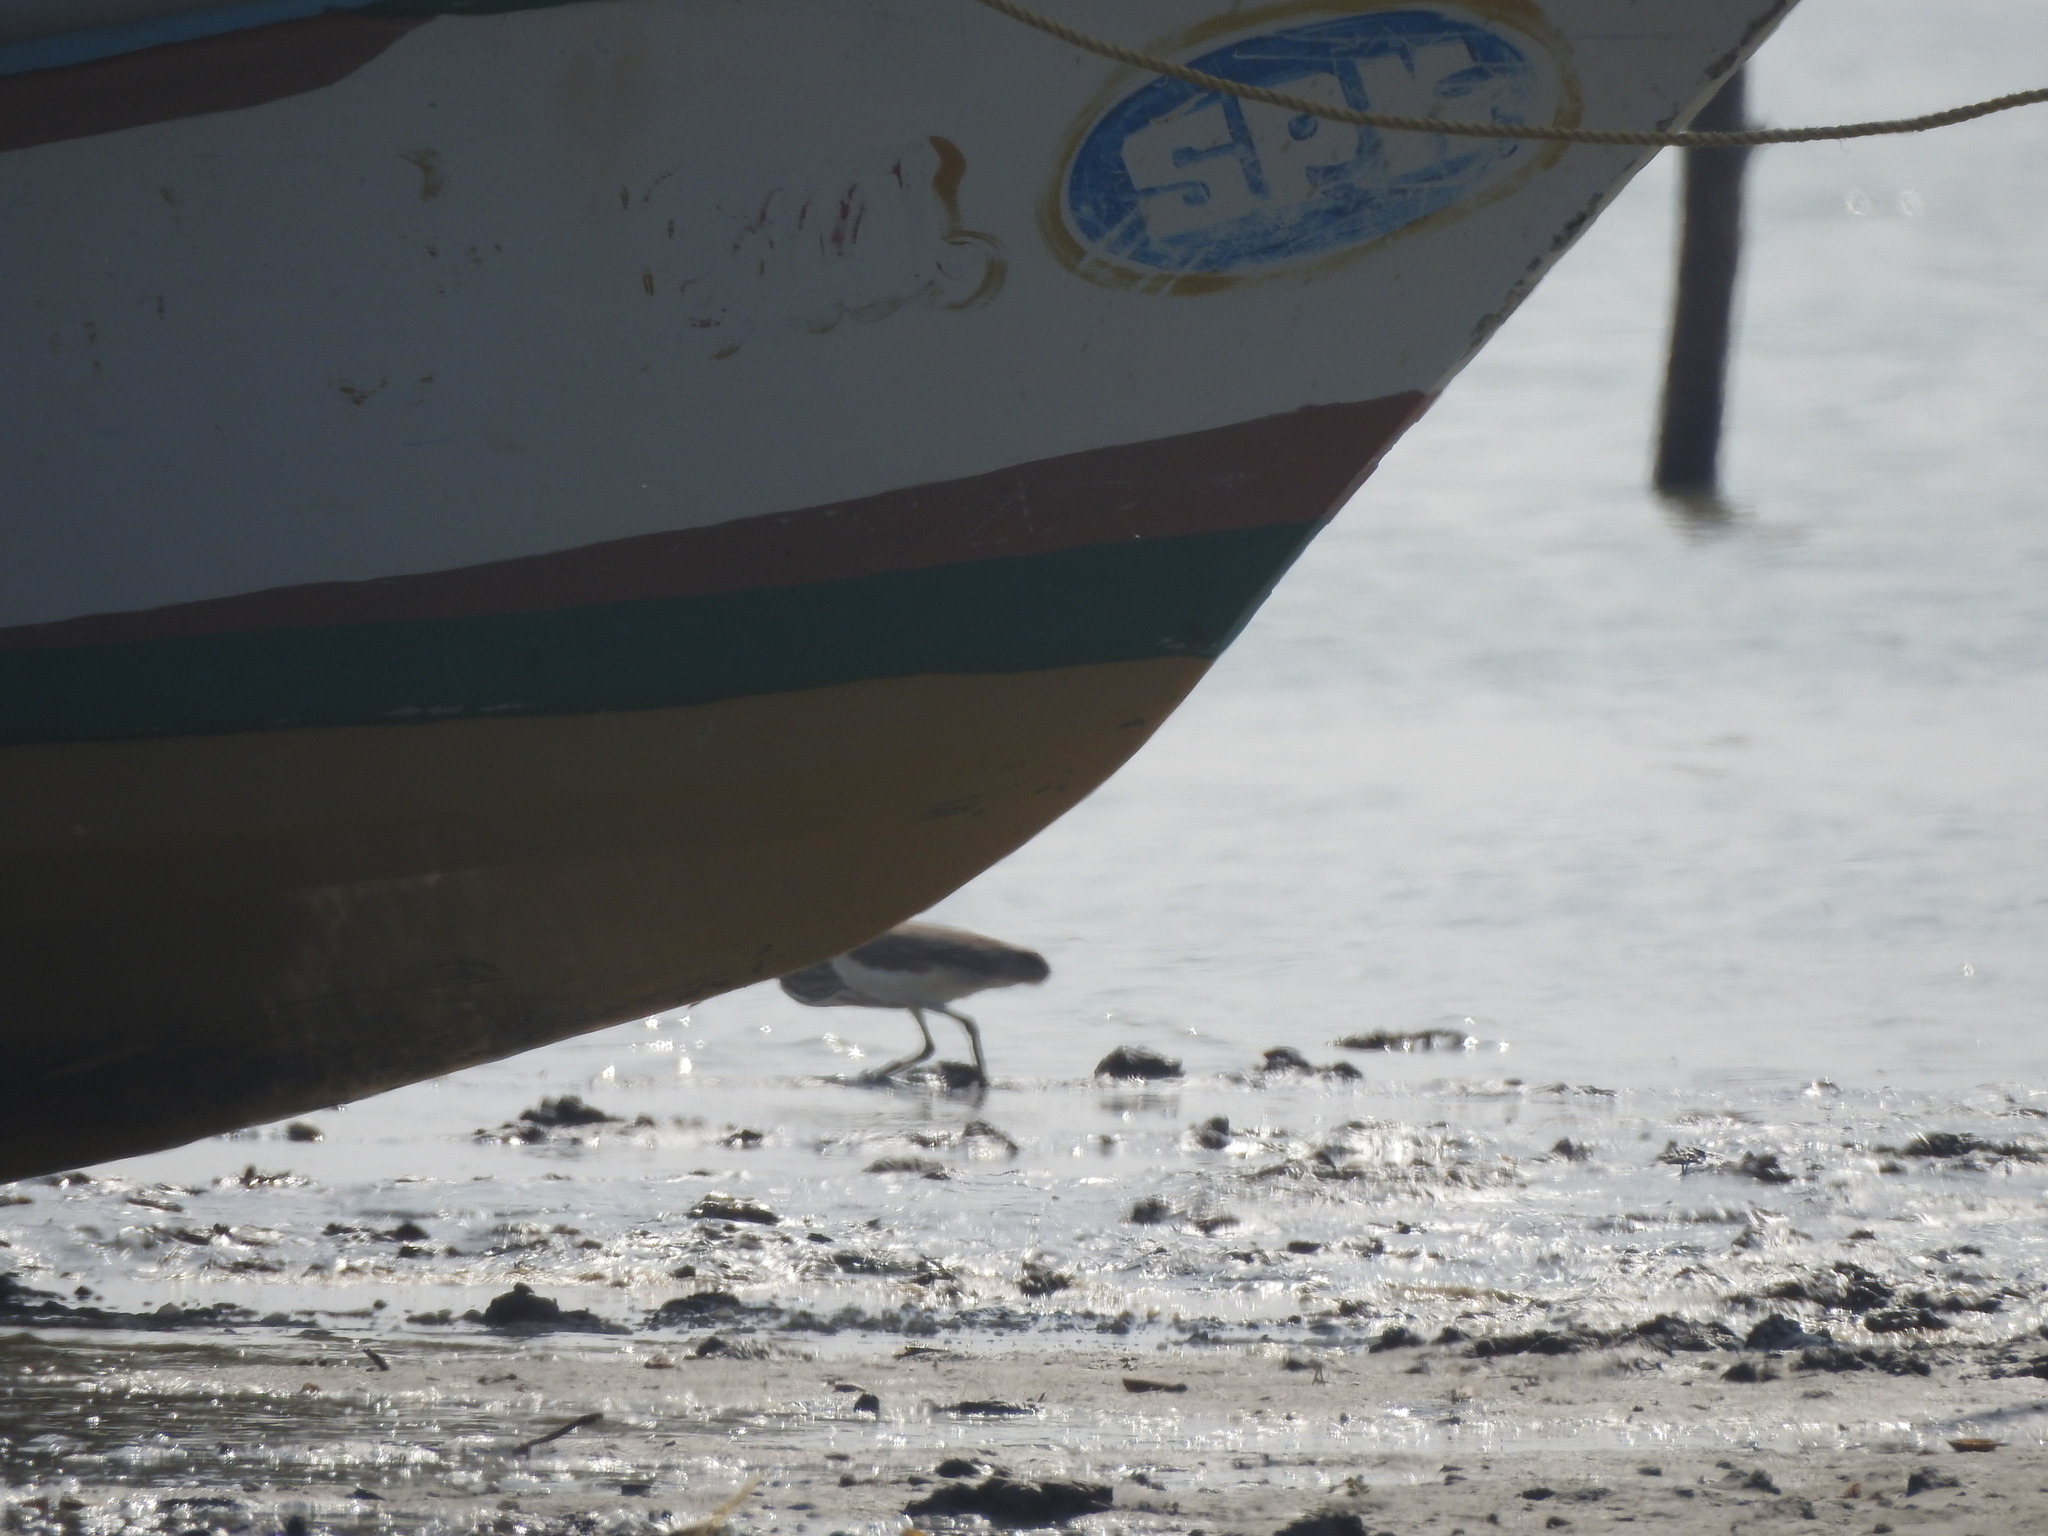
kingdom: Animalia
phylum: Chordata
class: Aves
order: Pelecaniformes
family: Ardeidae
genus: Ardeola
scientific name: Ardeola grayii
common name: Indian pond heron
